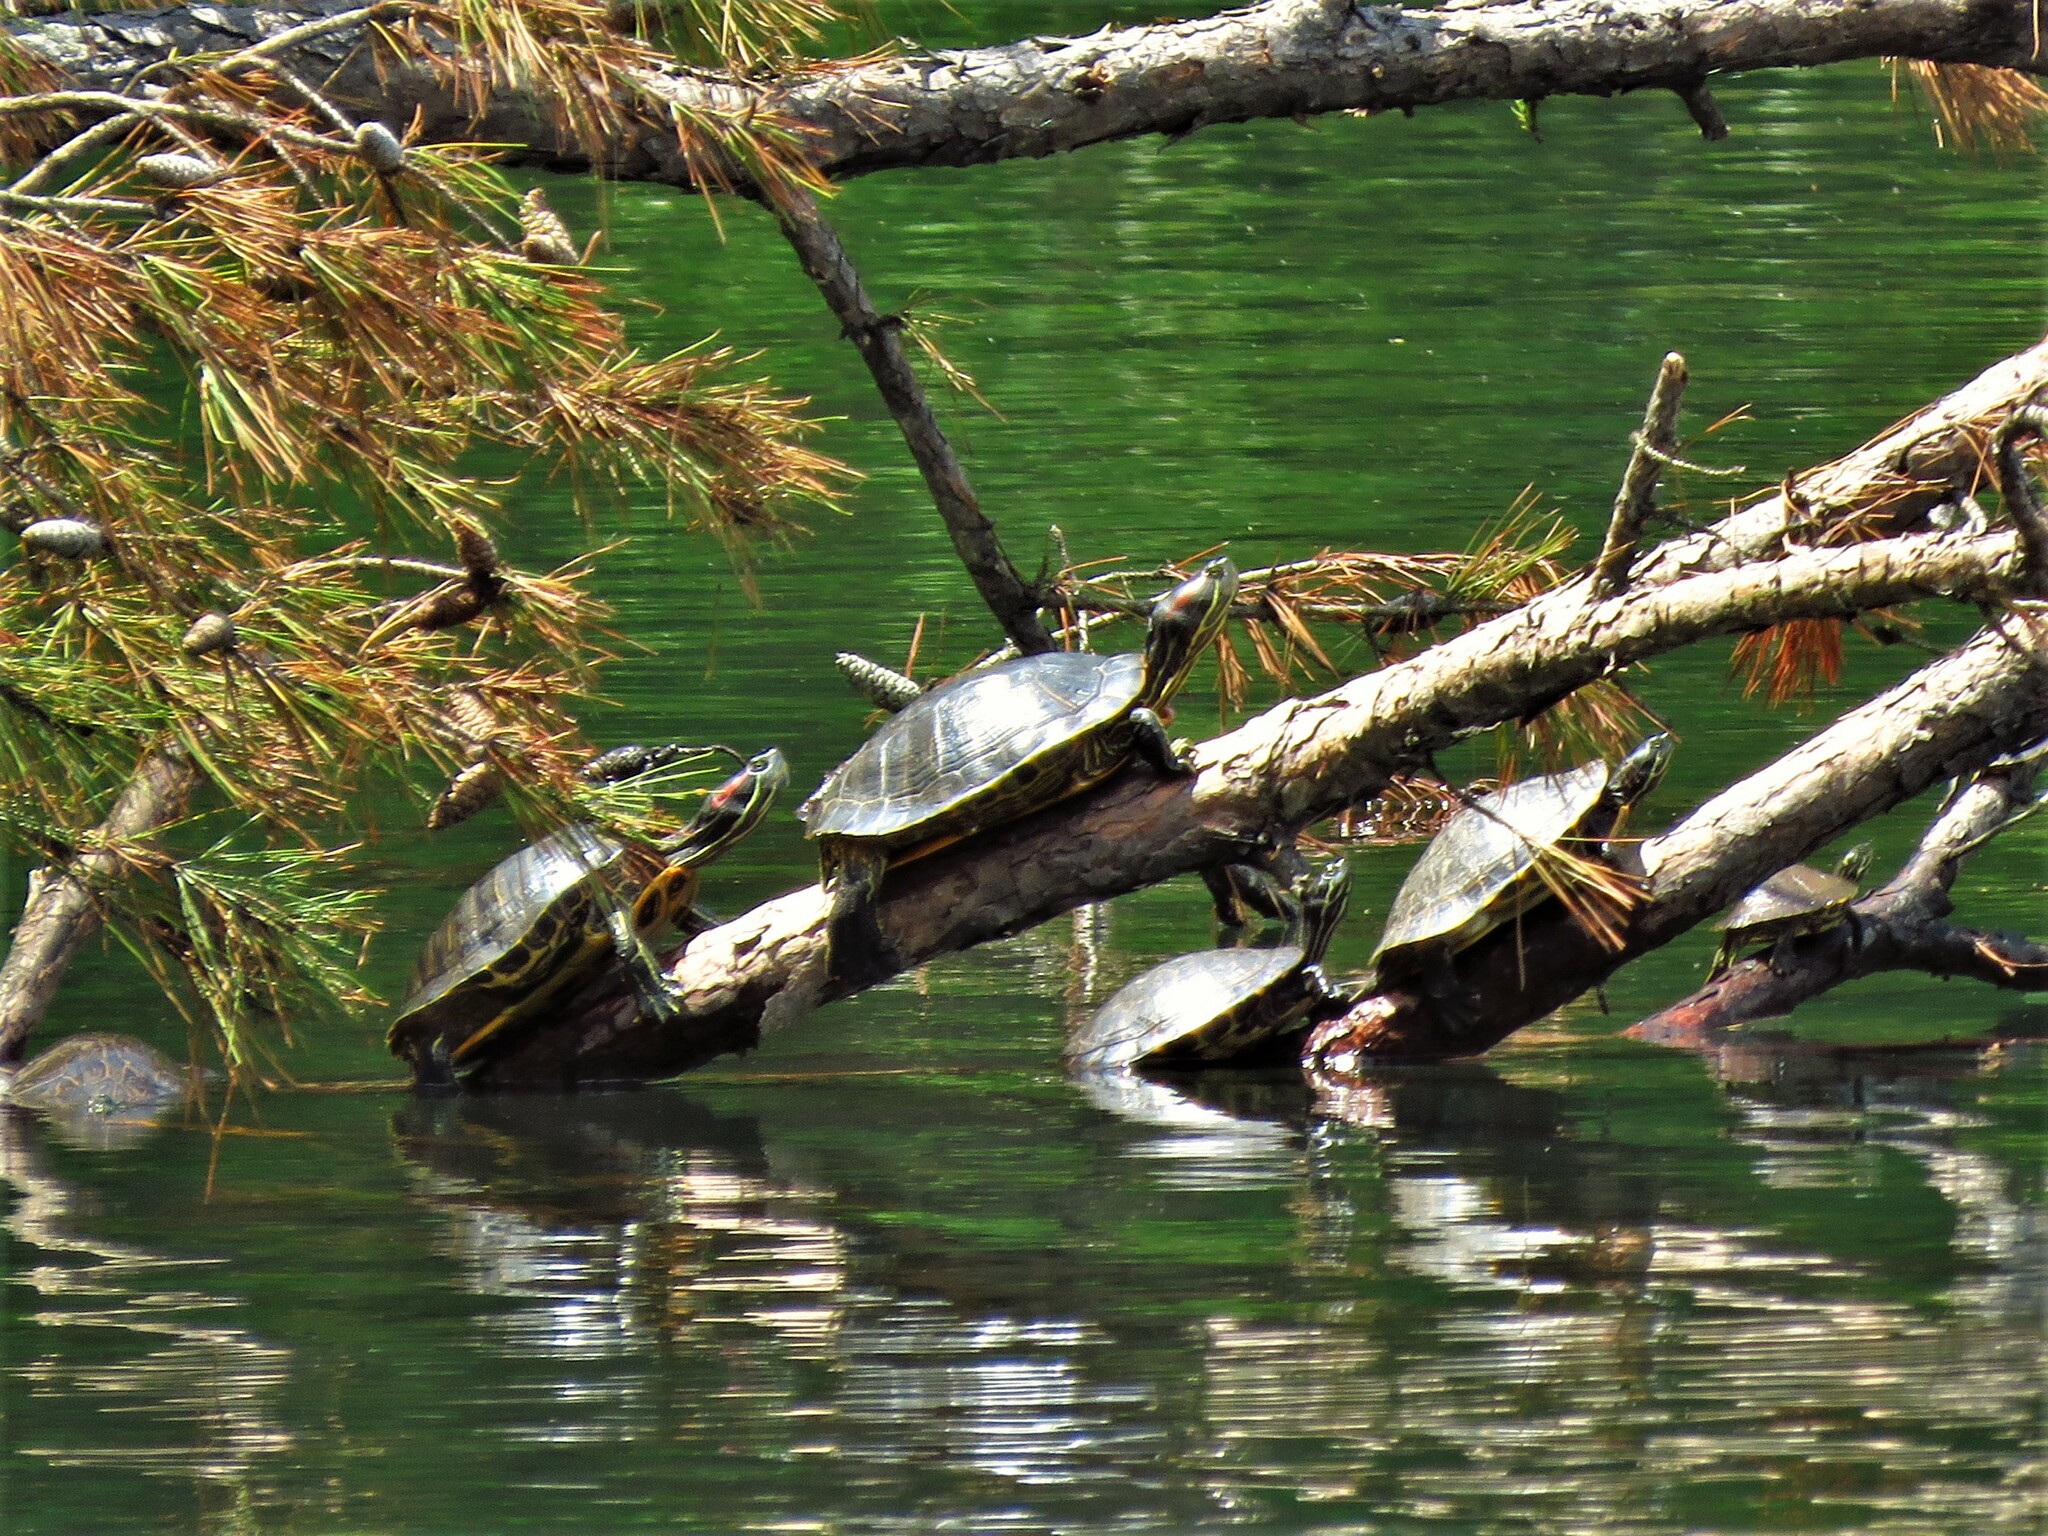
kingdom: Animalia
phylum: Chordata
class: Testudines
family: Emydidae
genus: Trachemys
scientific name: Trachemys scripta
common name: Slider
